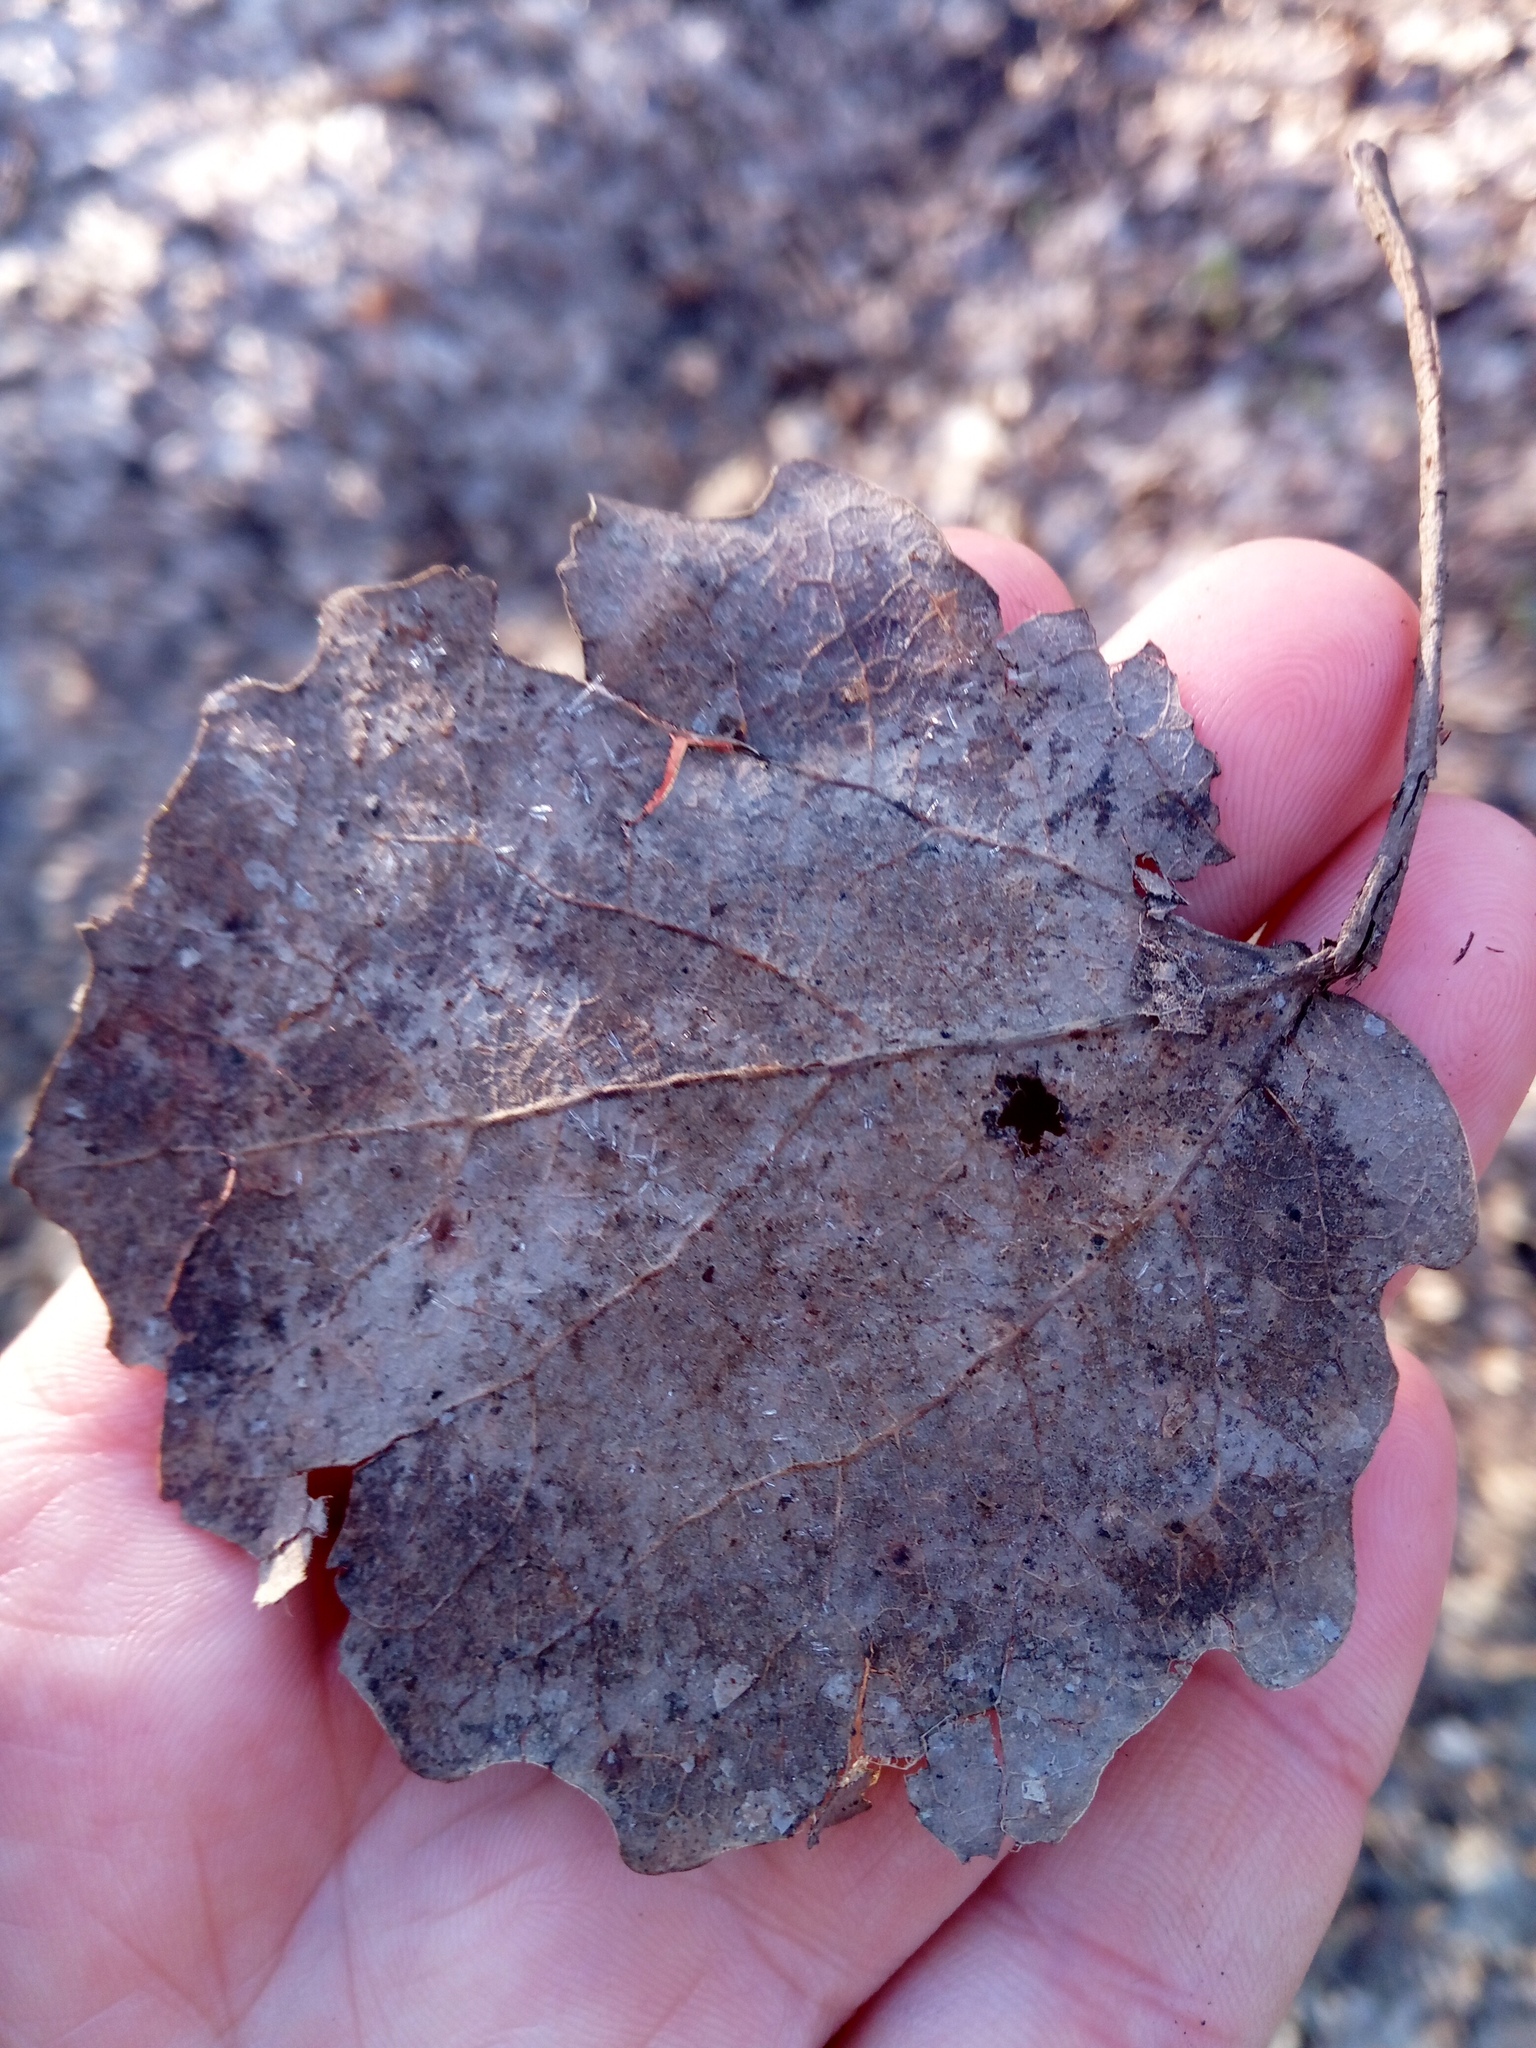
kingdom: Plantae
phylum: Tracheophyta
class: Magnoliopsida
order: Malpighiales
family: Salicaceae
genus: Populus
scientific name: Populus tremula
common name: European aspen
